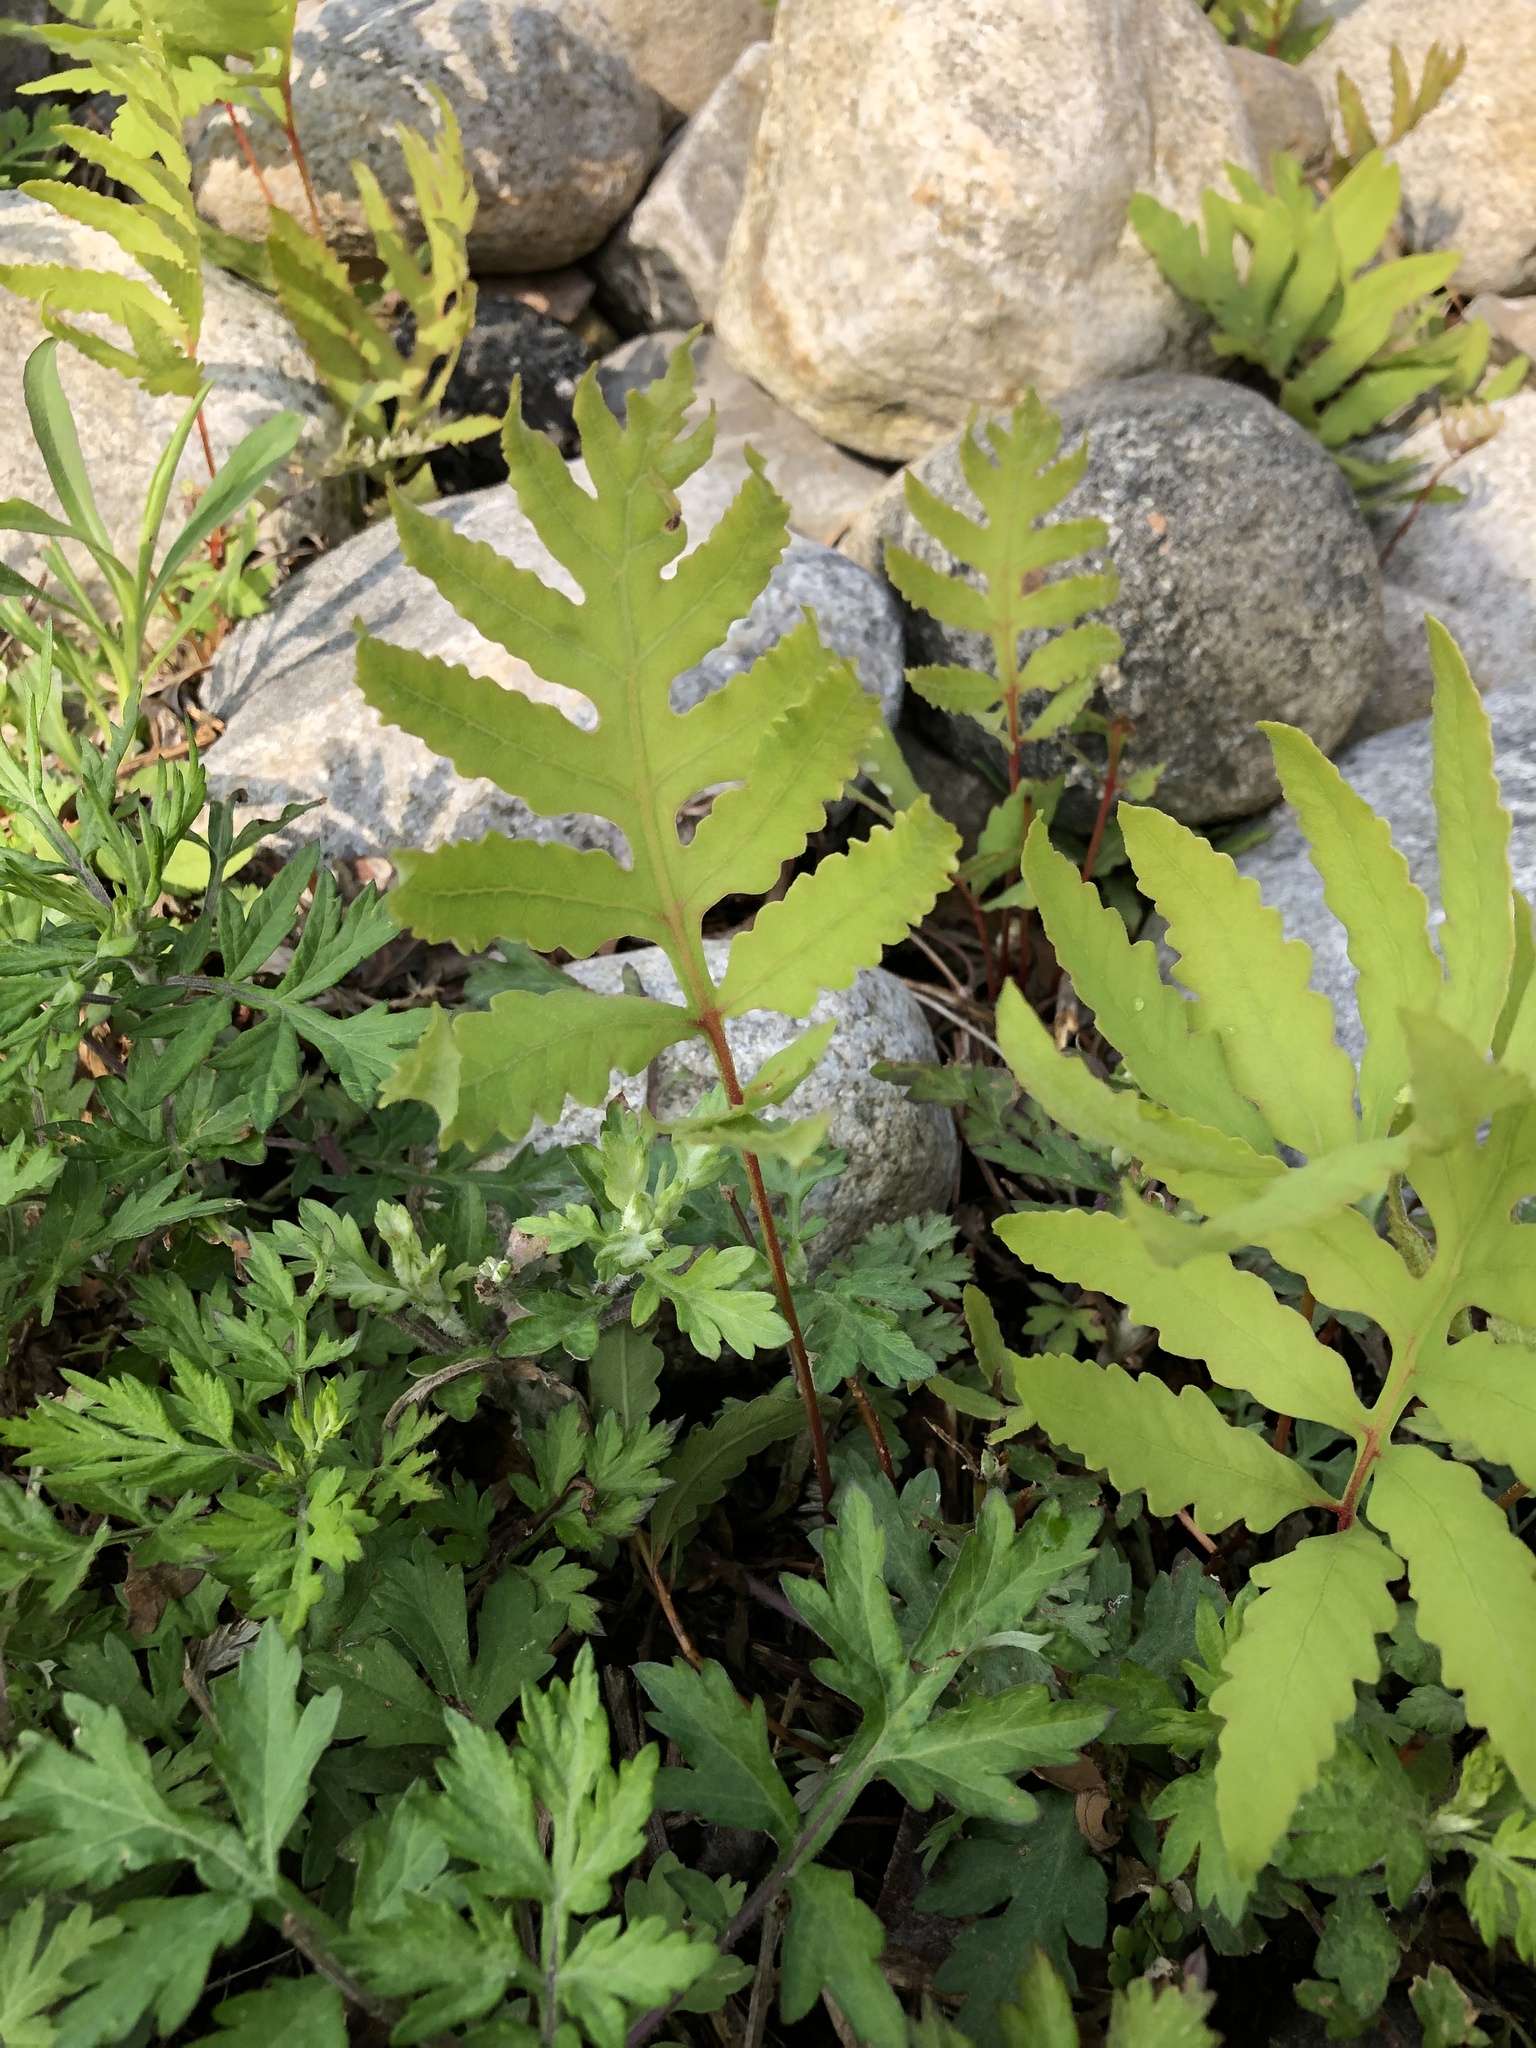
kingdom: Plantae
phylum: Tracheophyta
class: Polypodiopsida
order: Polypodiales
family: Onocleaceae
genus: Onoclea
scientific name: Onoclea sensibilis
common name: Sensitive fern
